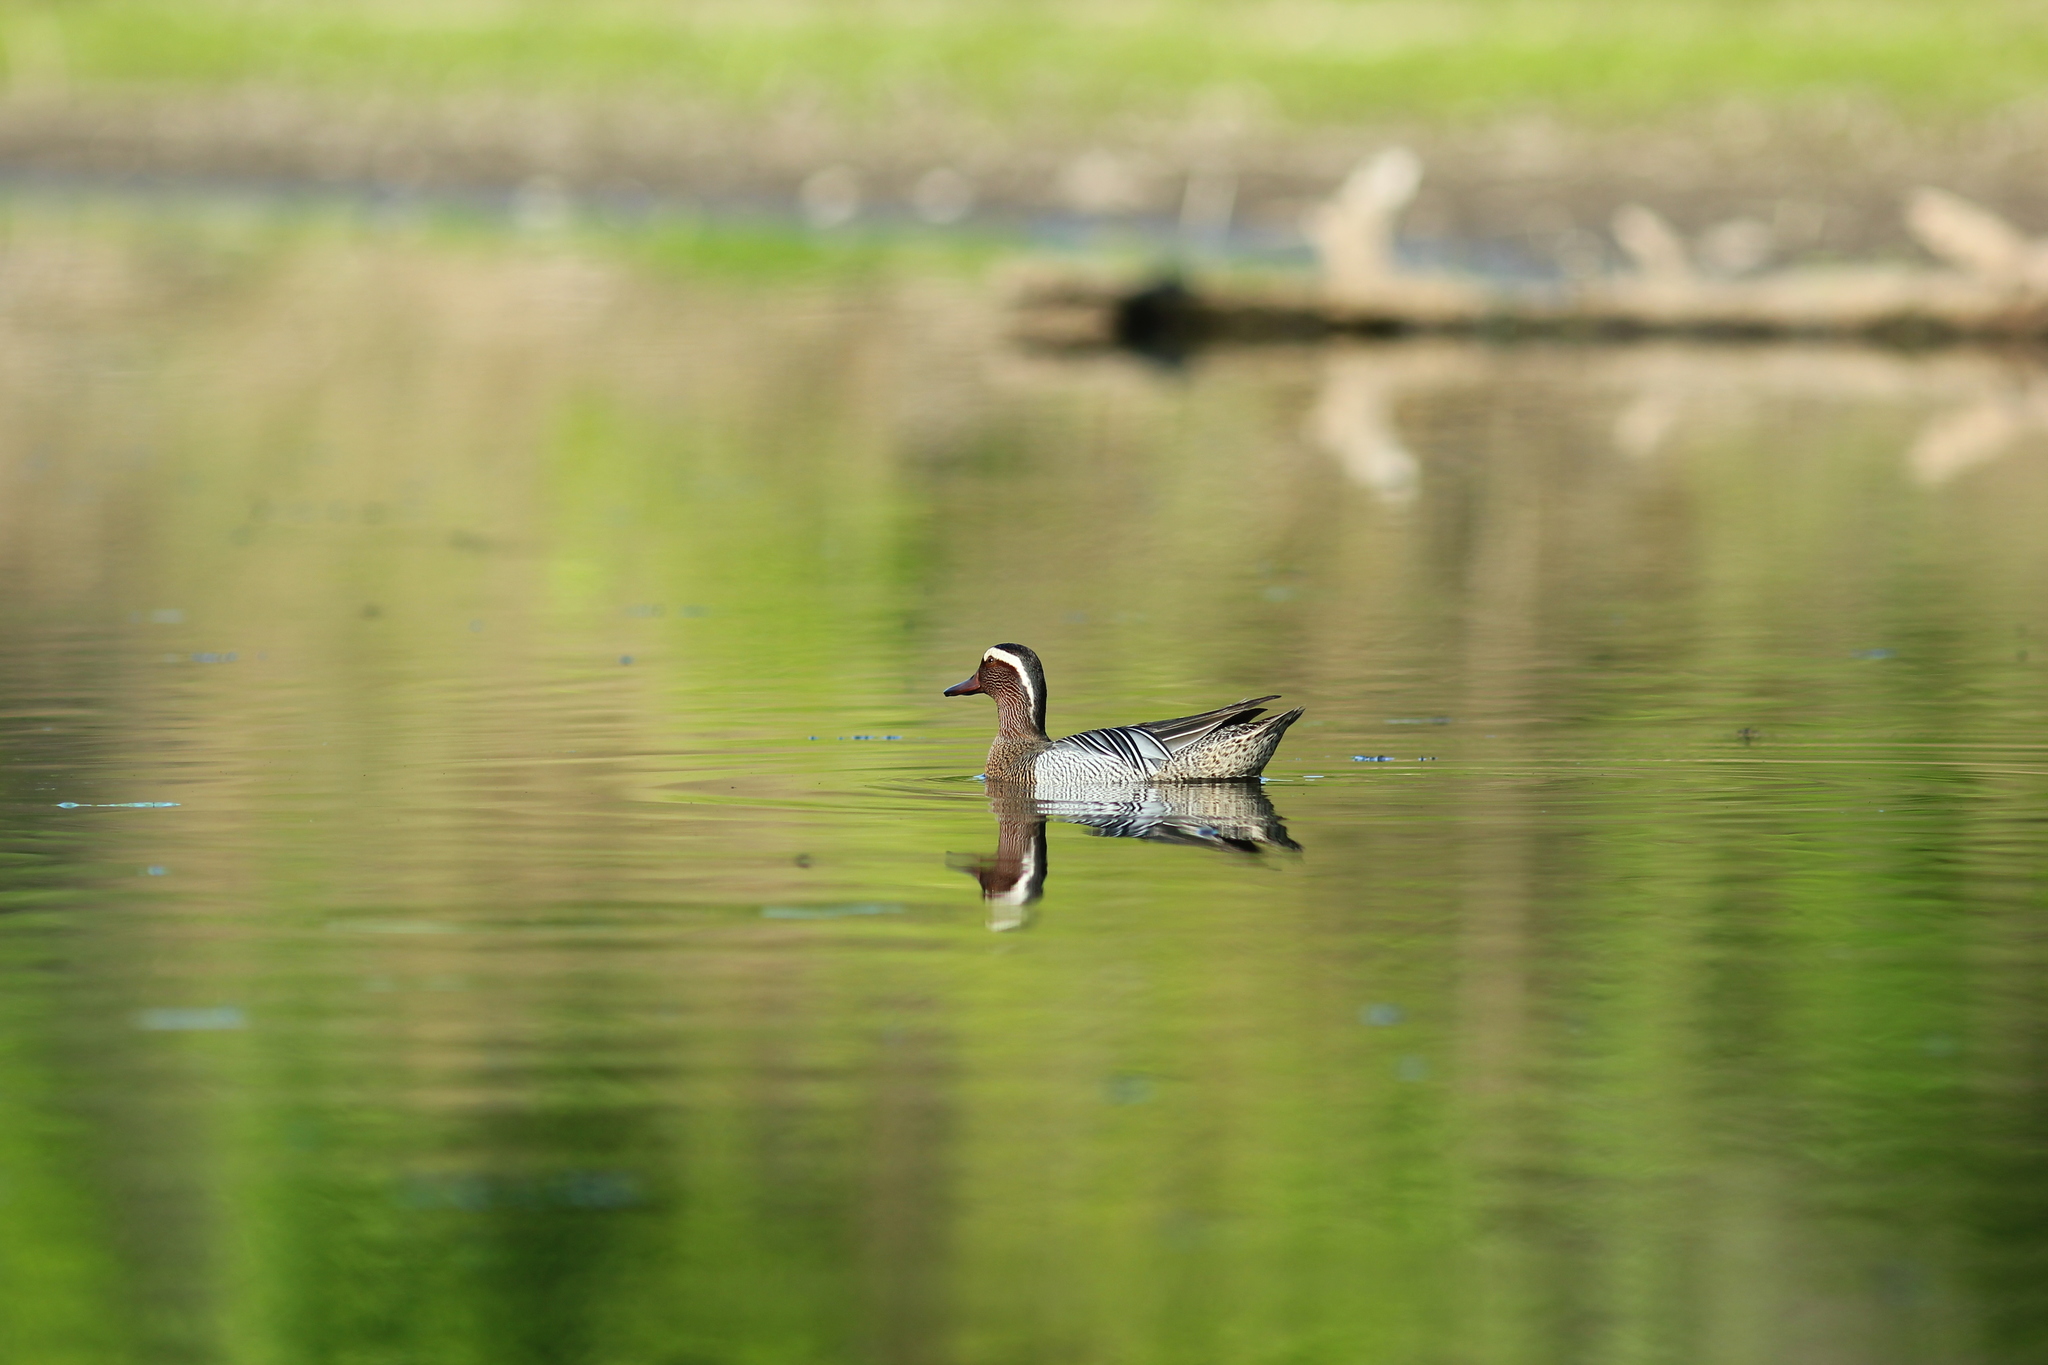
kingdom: Animalia
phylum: Chordata
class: Aves
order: Anseriformes
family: Anatidae
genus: Spatula
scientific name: Spatula querquedula
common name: Garganey
